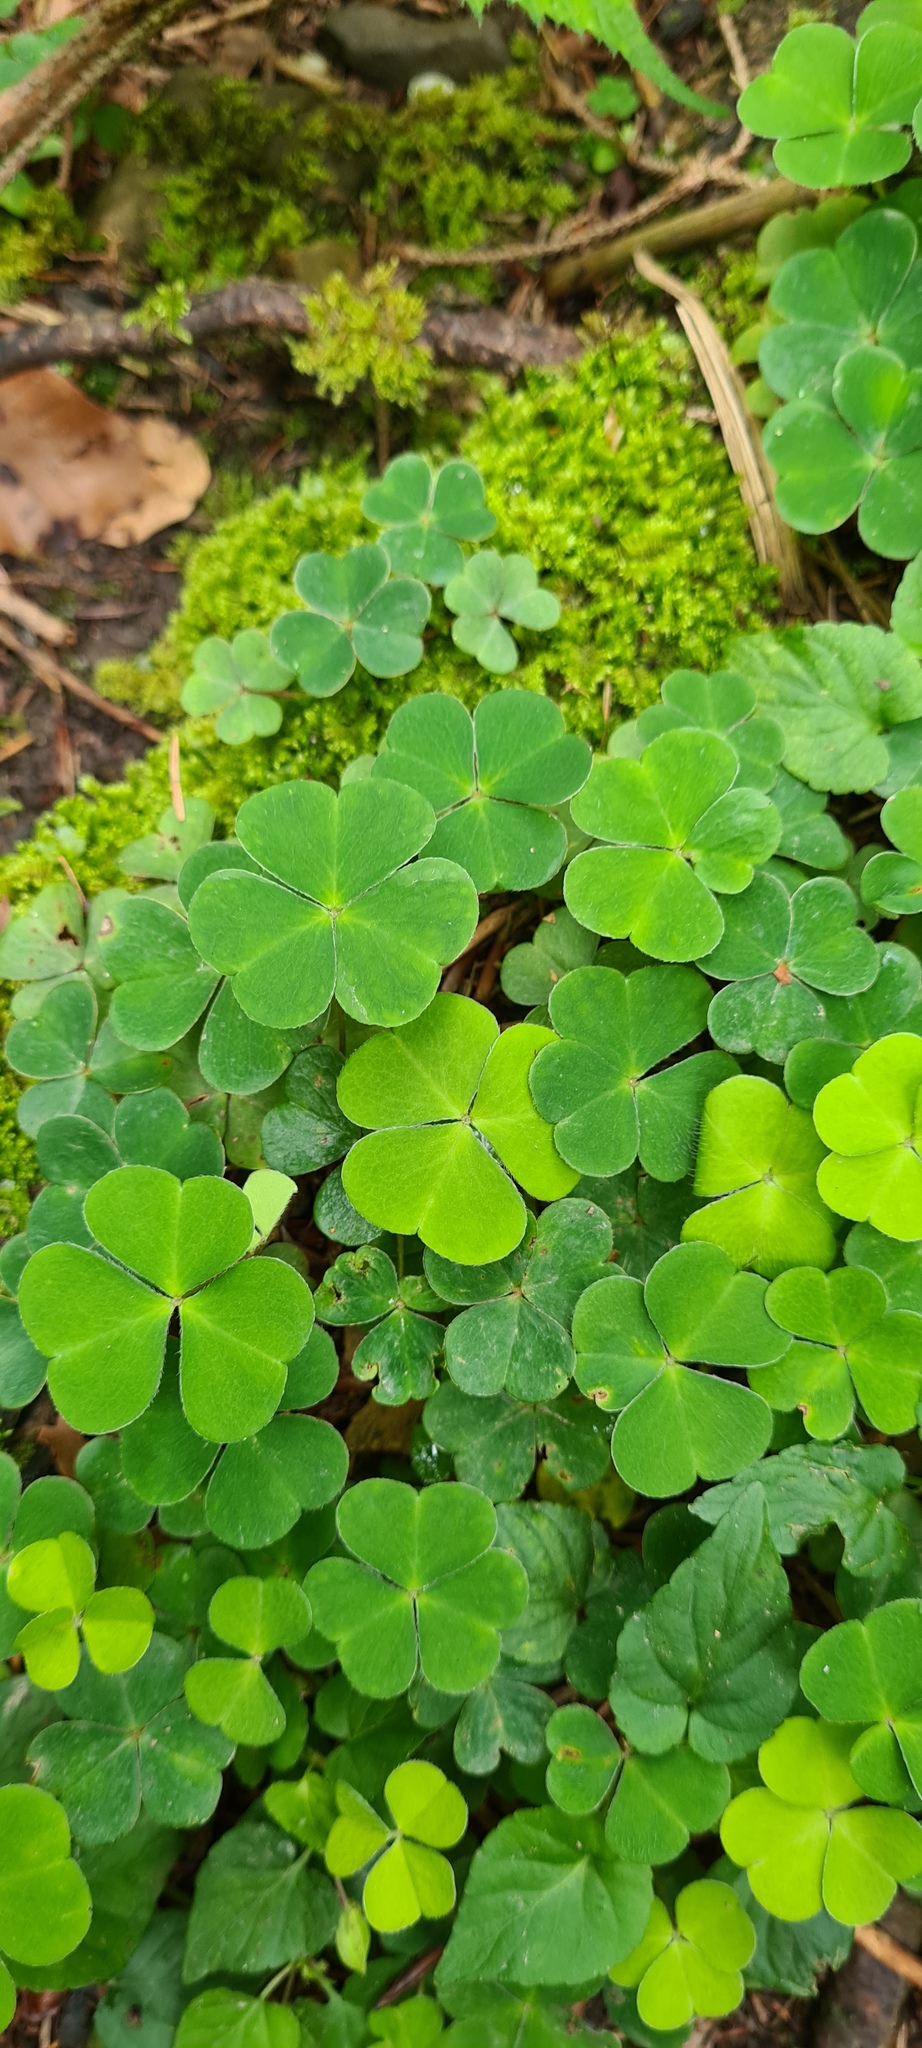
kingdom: Plantae
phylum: Tracheophyta
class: Magnoliopsida
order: Oxalidales
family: Oxalidaceae
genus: Oxalis
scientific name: Oxalis acetosella
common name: Wood-sorrel
